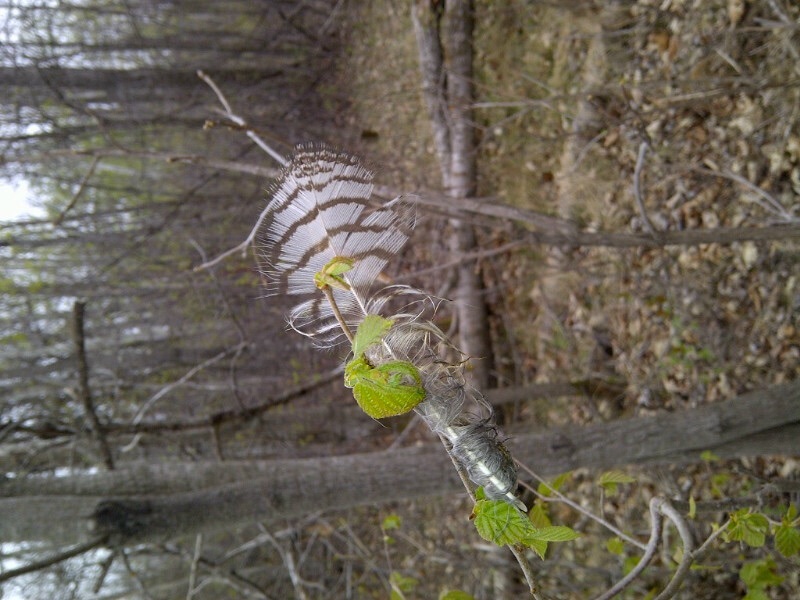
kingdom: Animalia
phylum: Chordata
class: Aves
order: Strigiformes
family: Strigidae
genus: Bubo
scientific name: Bubo virginianus
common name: Great horned owl
